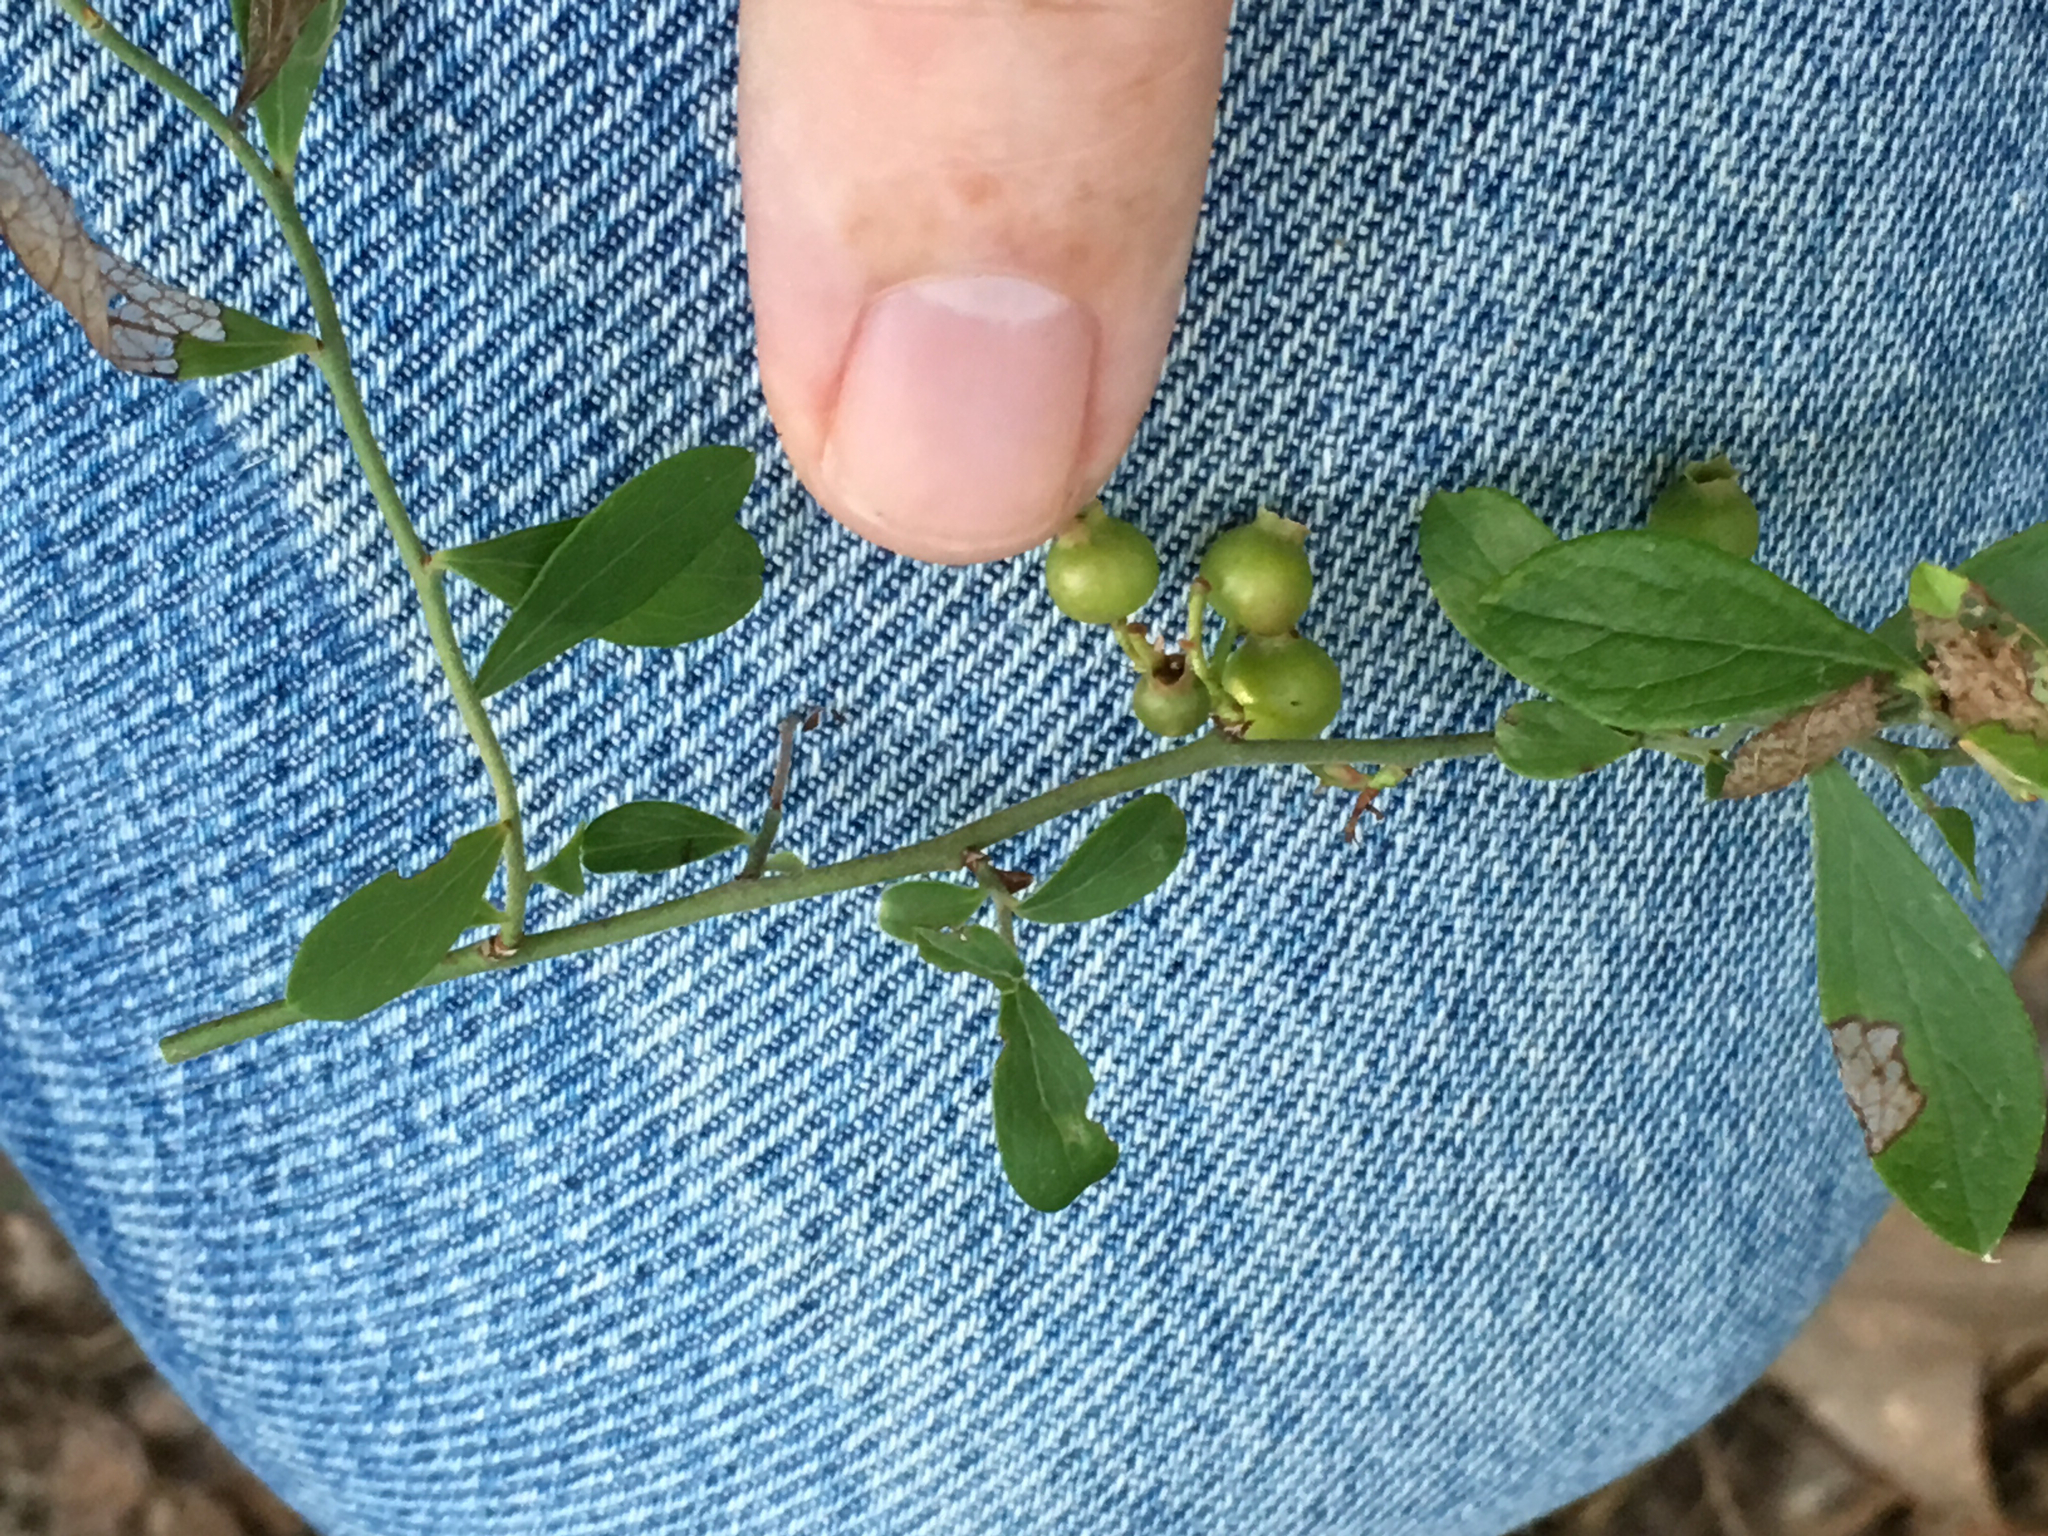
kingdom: Plantae
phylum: Tracheophyta
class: Magnoliopsida
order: Ericales
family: Ericaceae
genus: Vaccinium
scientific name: Vaccinium tenellum
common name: Southern blueberry
